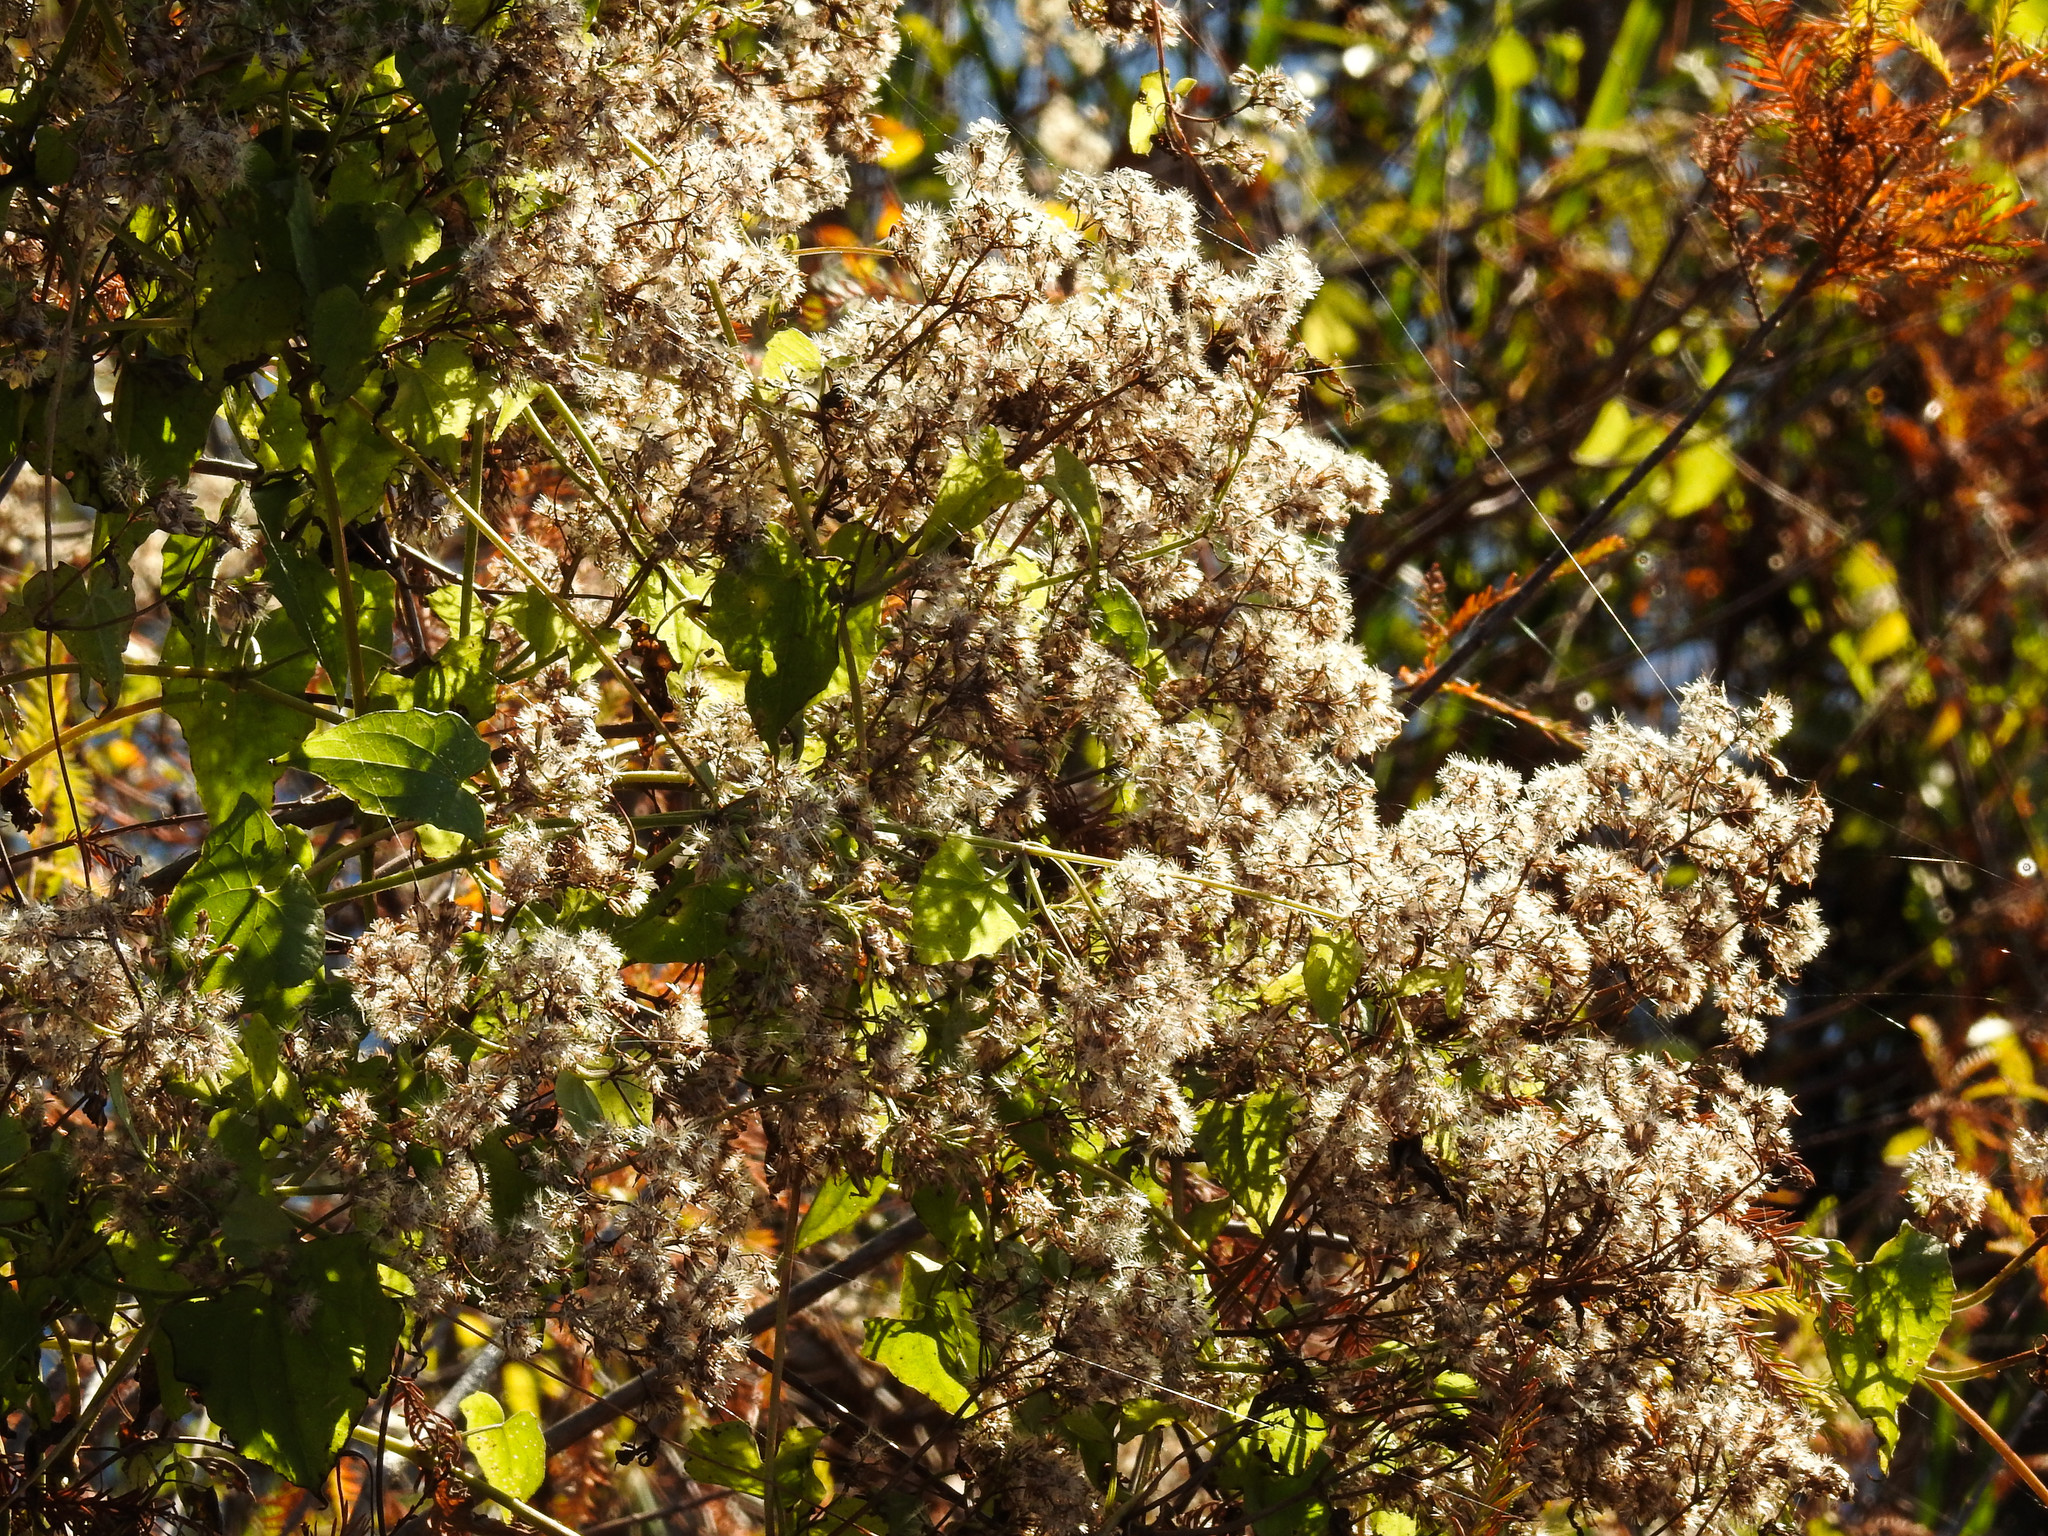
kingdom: Plantae
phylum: Tracheophyta
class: Magnoliopsida
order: Asterales
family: Asteraceae
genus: Mikania
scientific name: Mikania scandens
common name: Climbing hempvine
